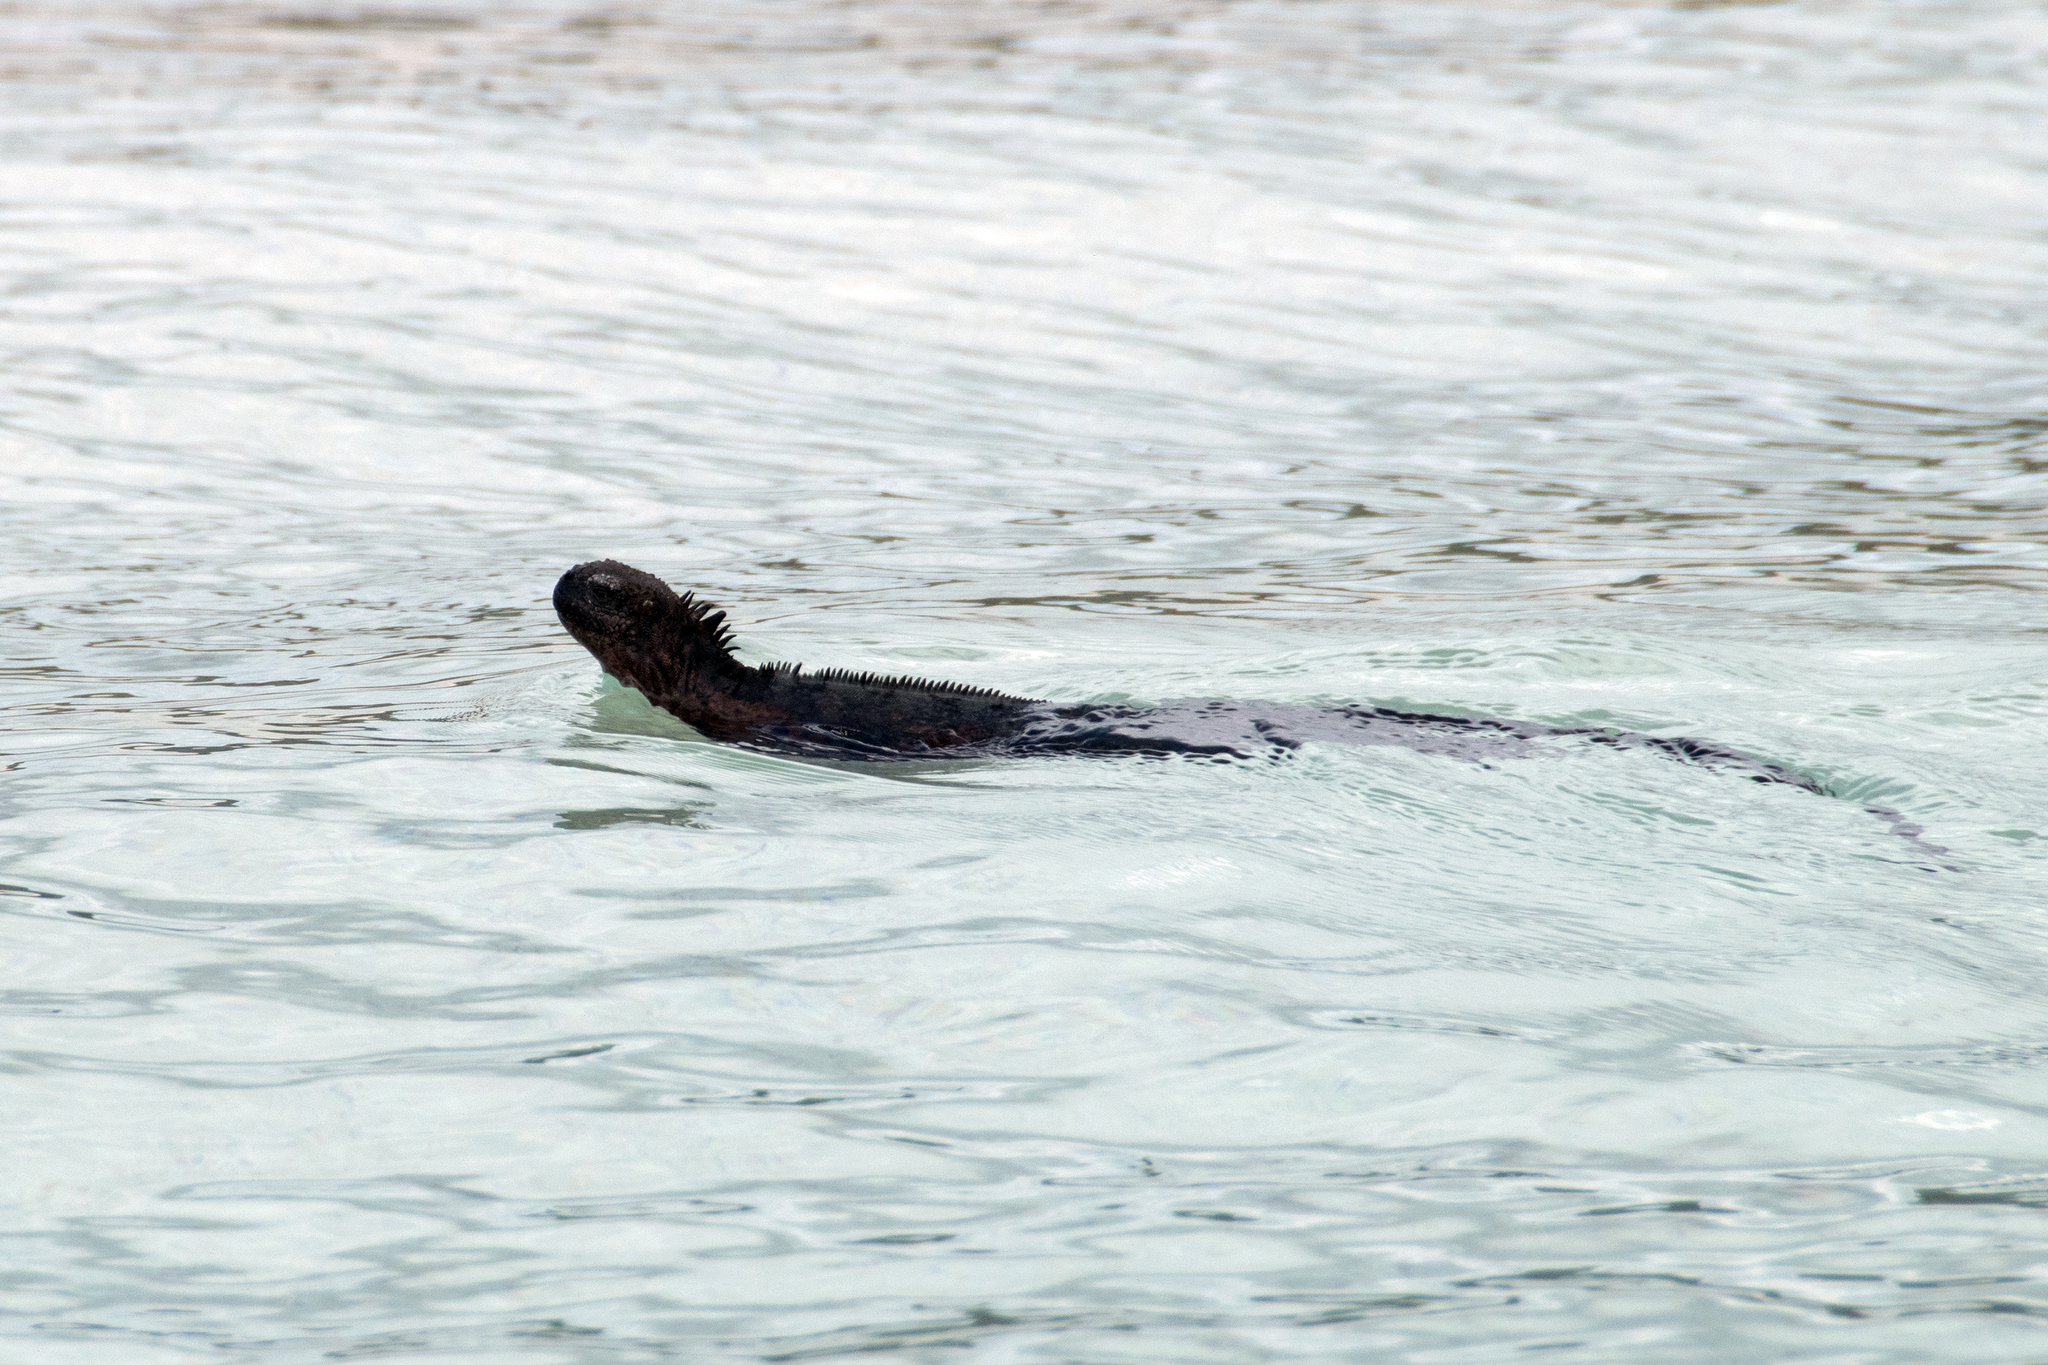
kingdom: Animalia
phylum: Chordata
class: Squamata
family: Iguanidae
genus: Amblyrhynchus
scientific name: Amblyrhynchus cristatus
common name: Marine iguana
